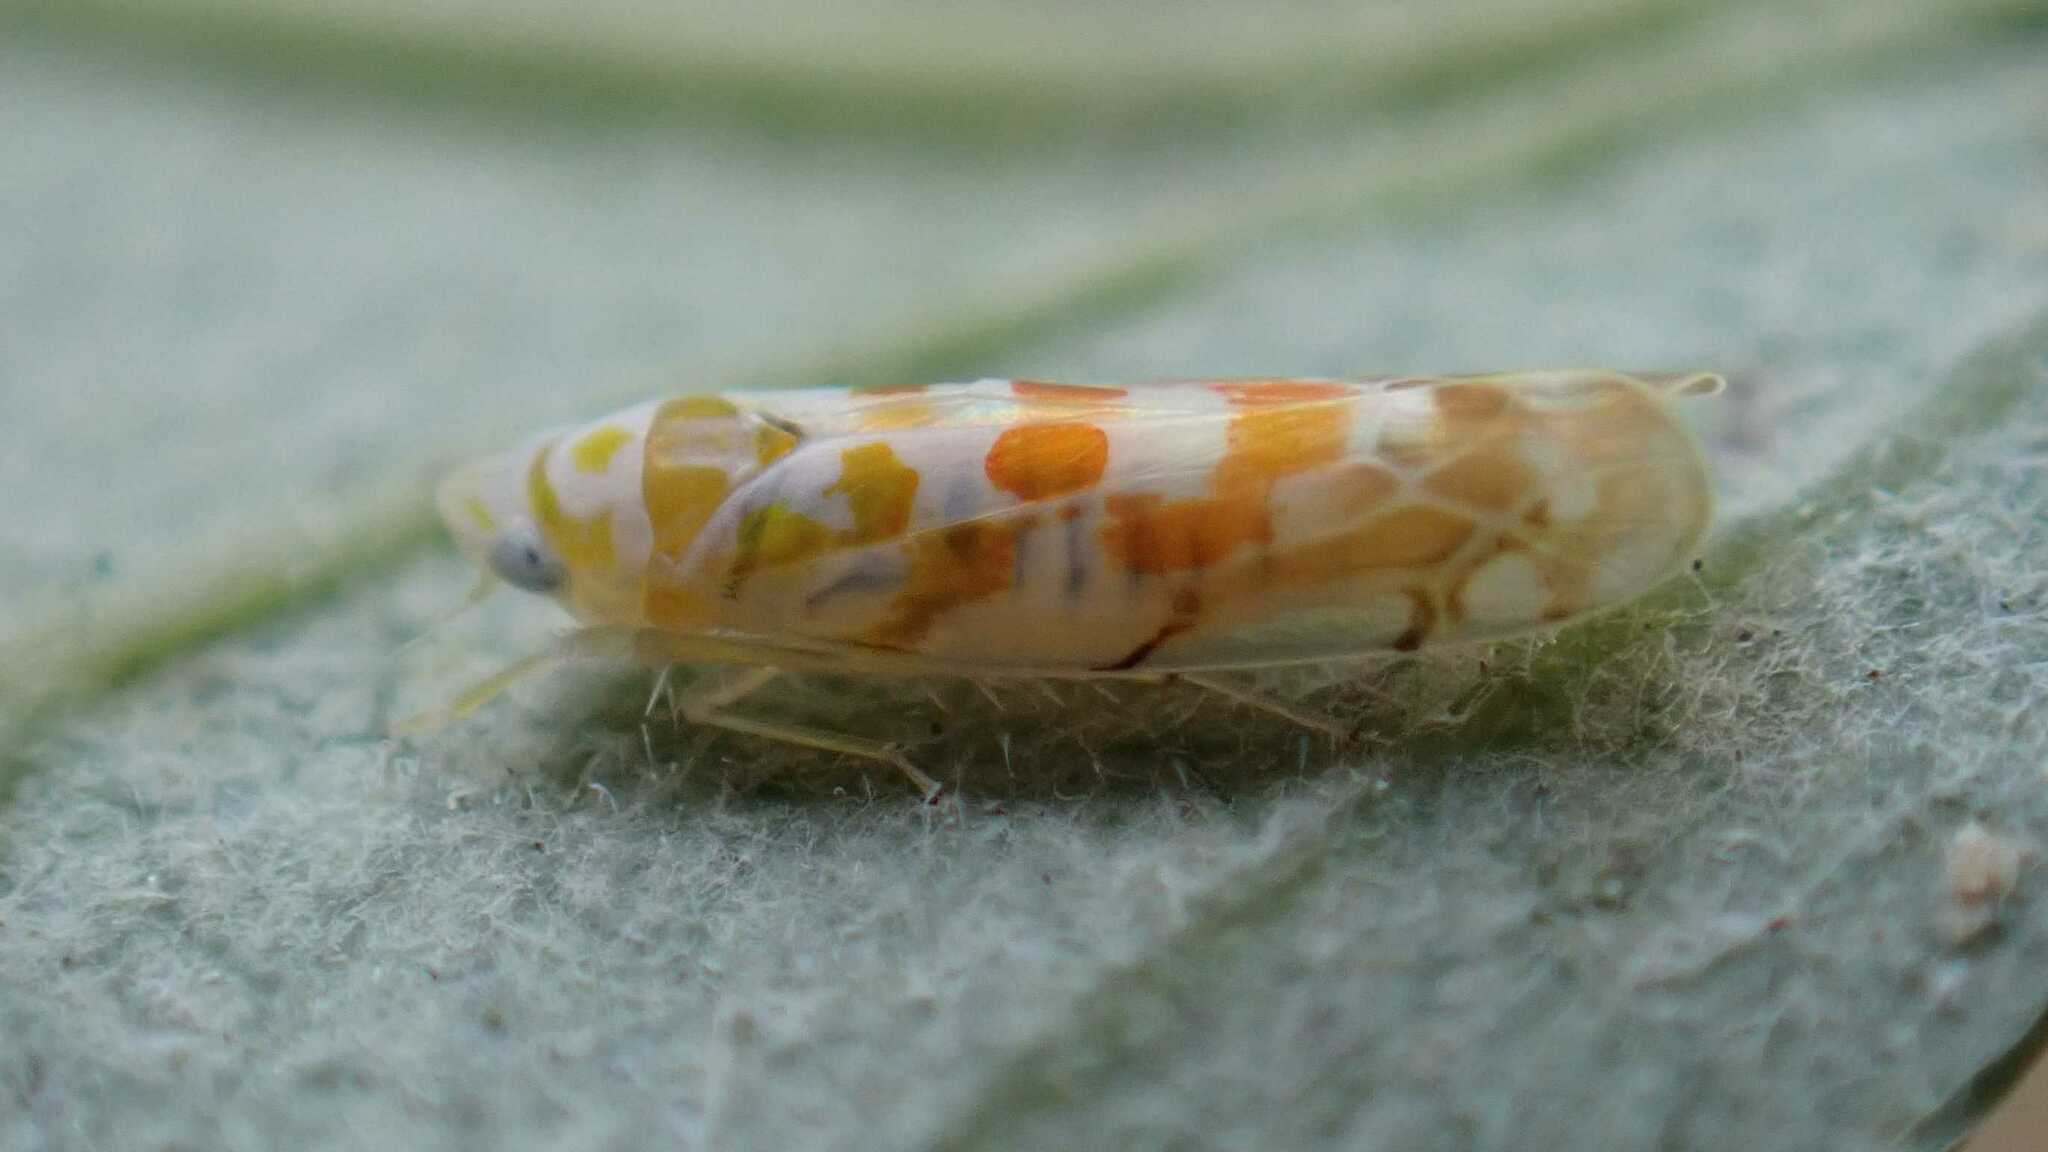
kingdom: Animalia
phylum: Arthropoda
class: Insecta
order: Hemiptera
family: Cicadellidae
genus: Typhlocyba
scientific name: Typhlocyba quercus
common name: Leafhopper
